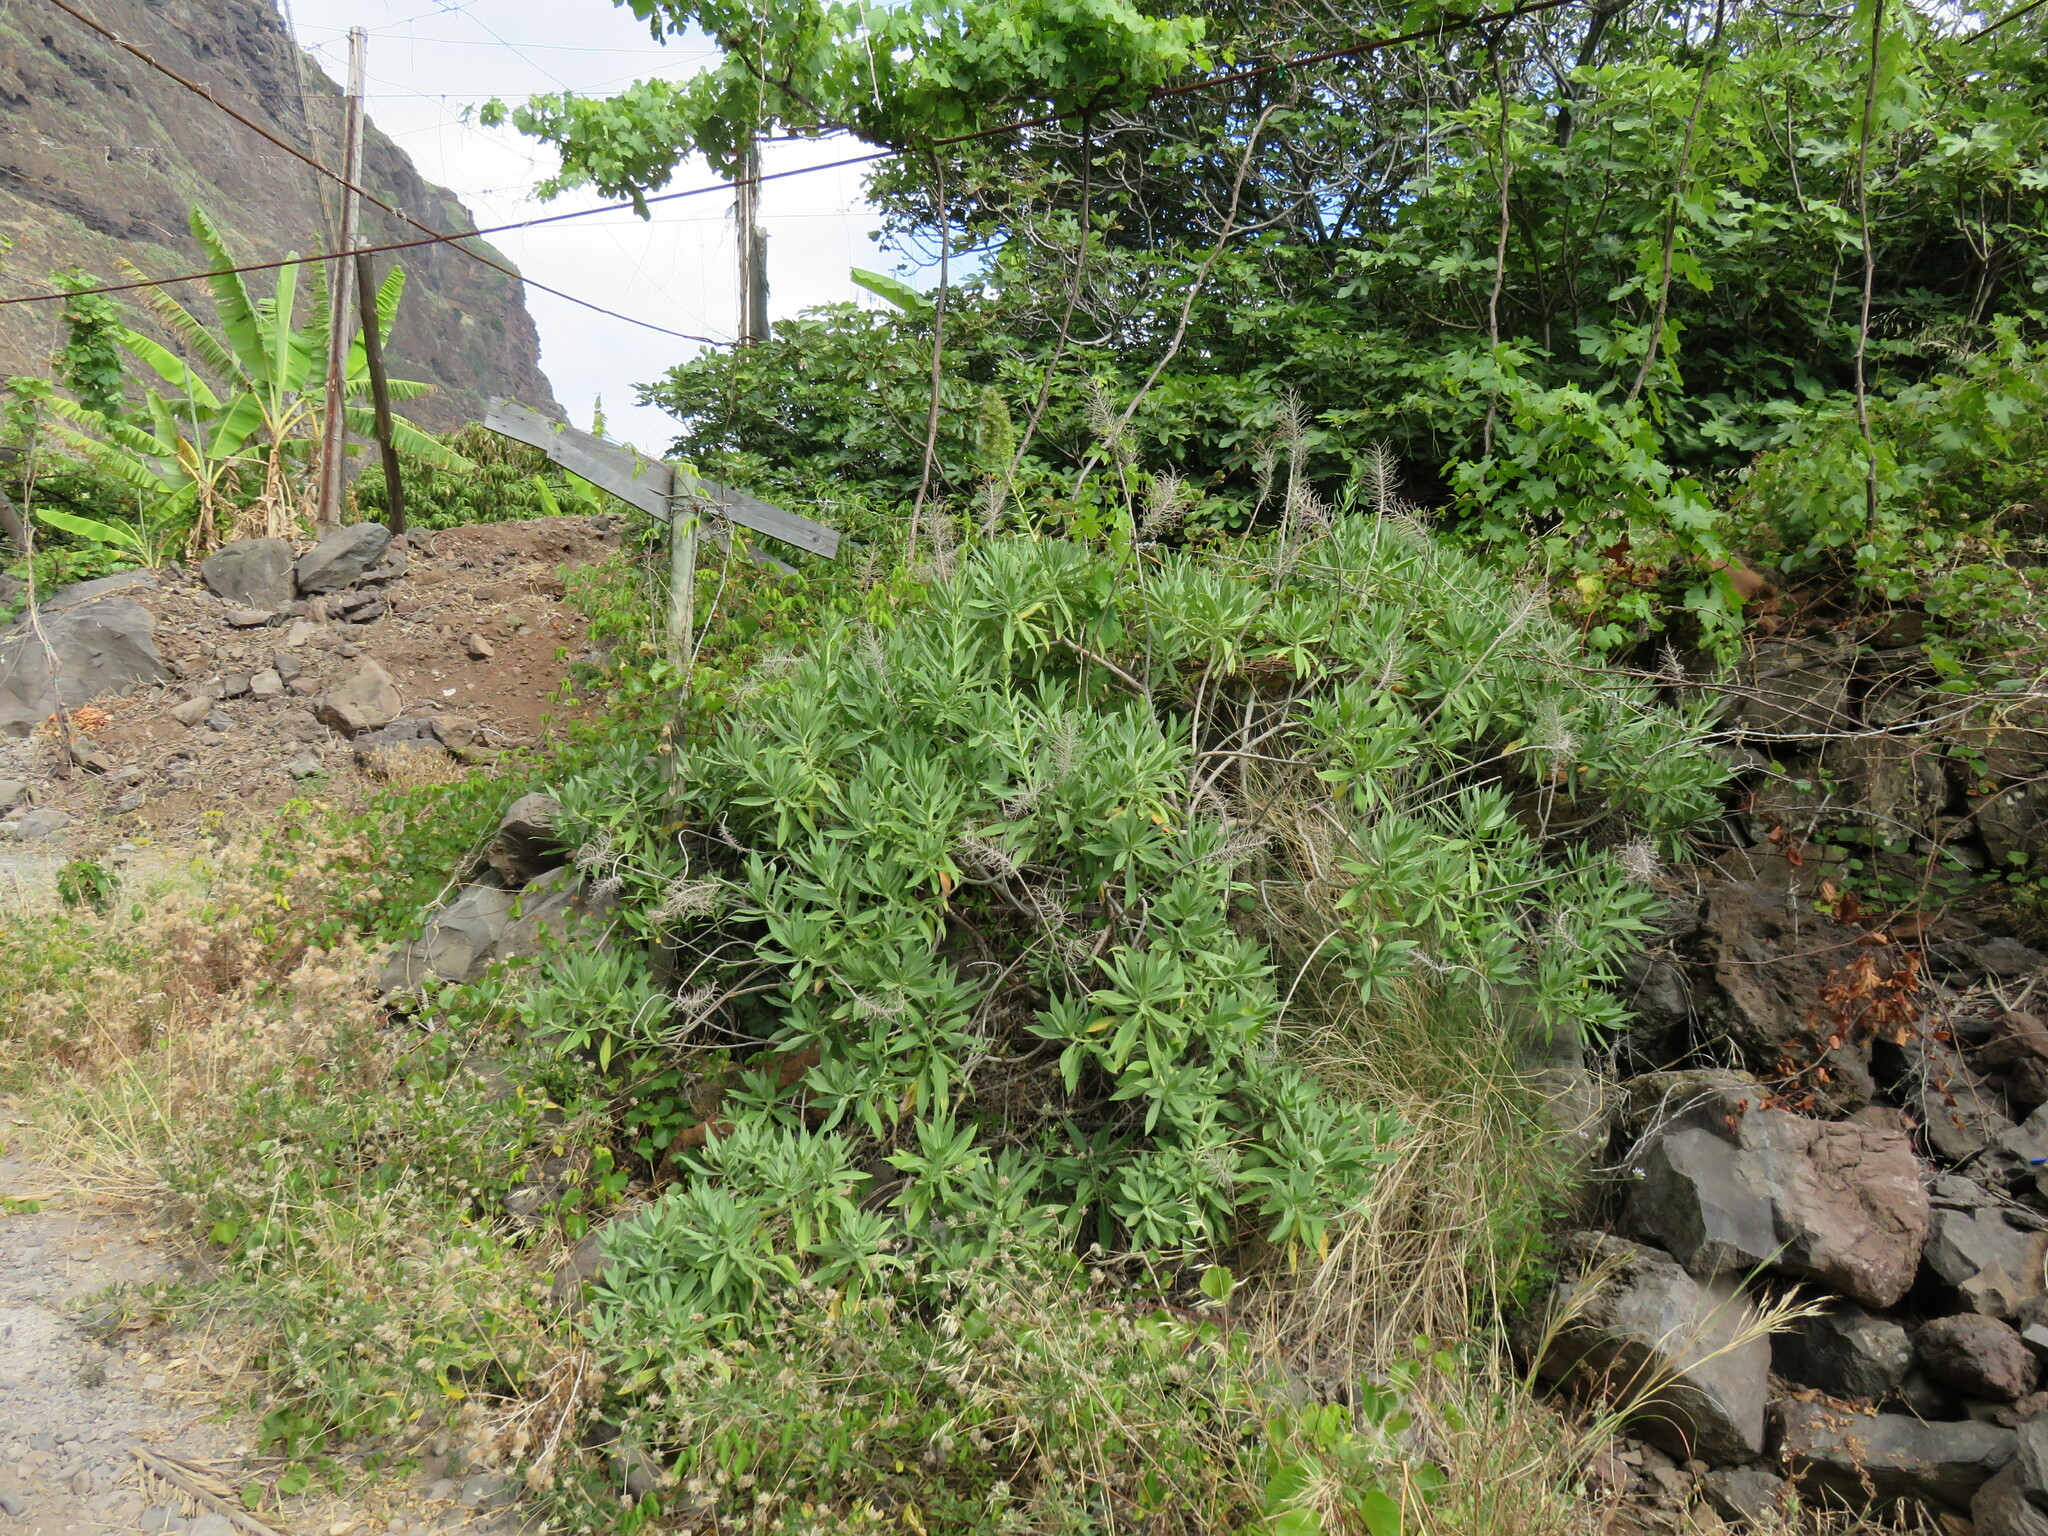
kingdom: Plantae
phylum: Tracheophyta
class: Magnoliopsida
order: Boraginales
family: Boraginaceae
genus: Echium
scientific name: Echium nervosum
